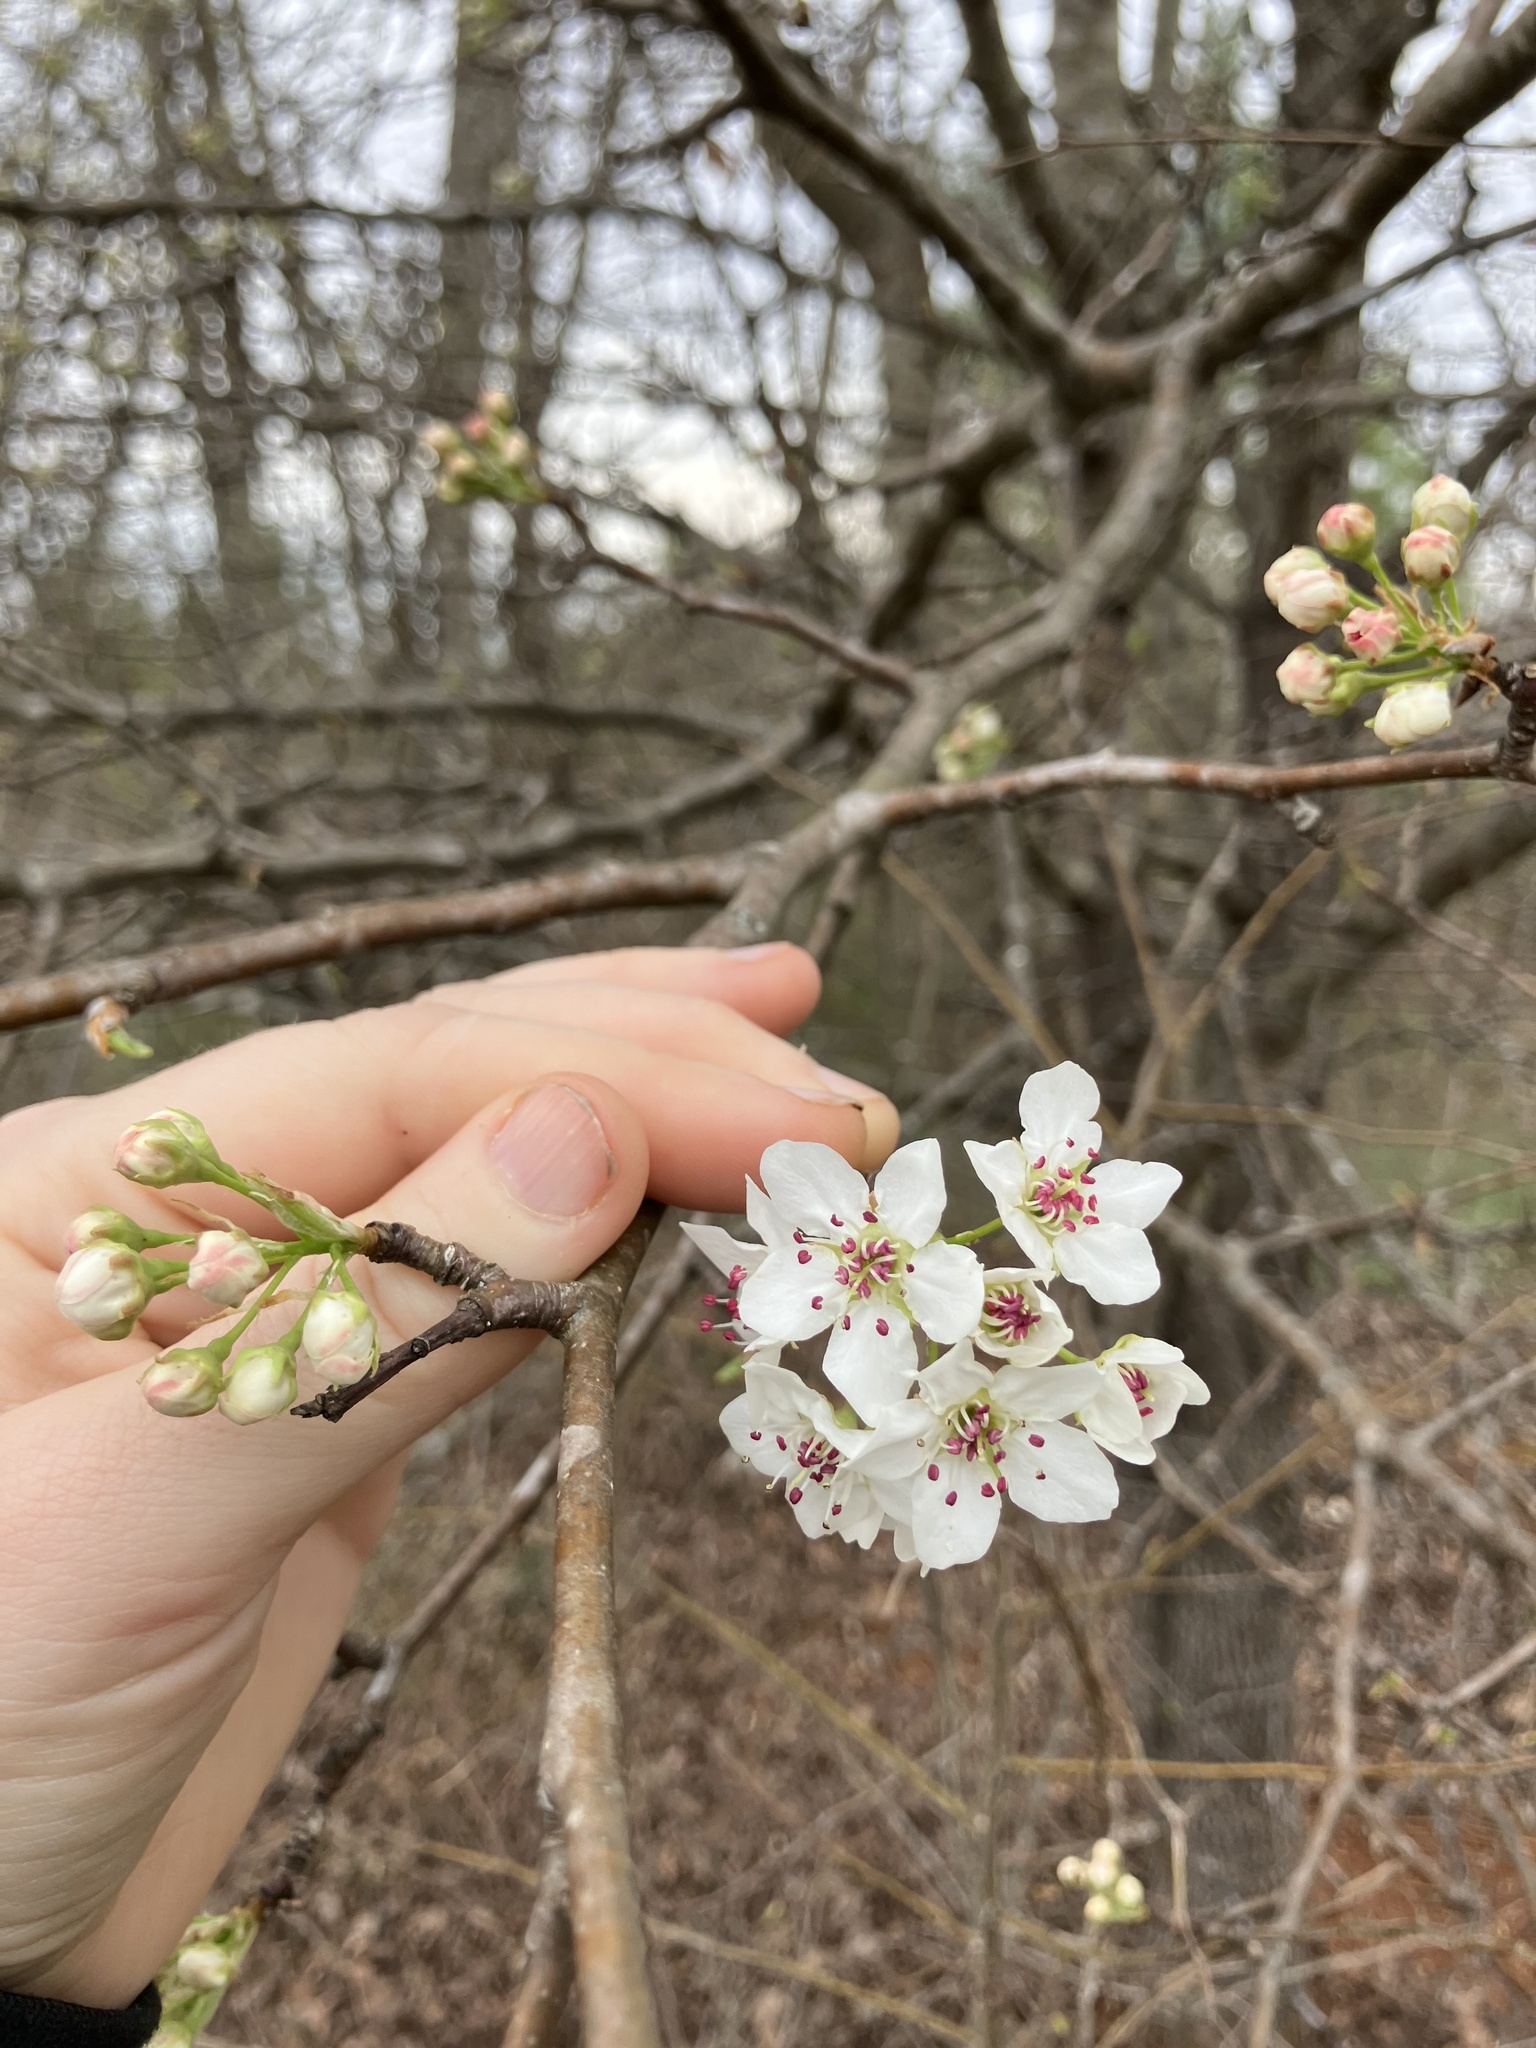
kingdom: Plantae
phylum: Tracheophyta
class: Magnoliopsida
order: Rosales
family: Rosaceae
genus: Pyrus
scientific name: Pyrus calleryana
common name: Callery pear
